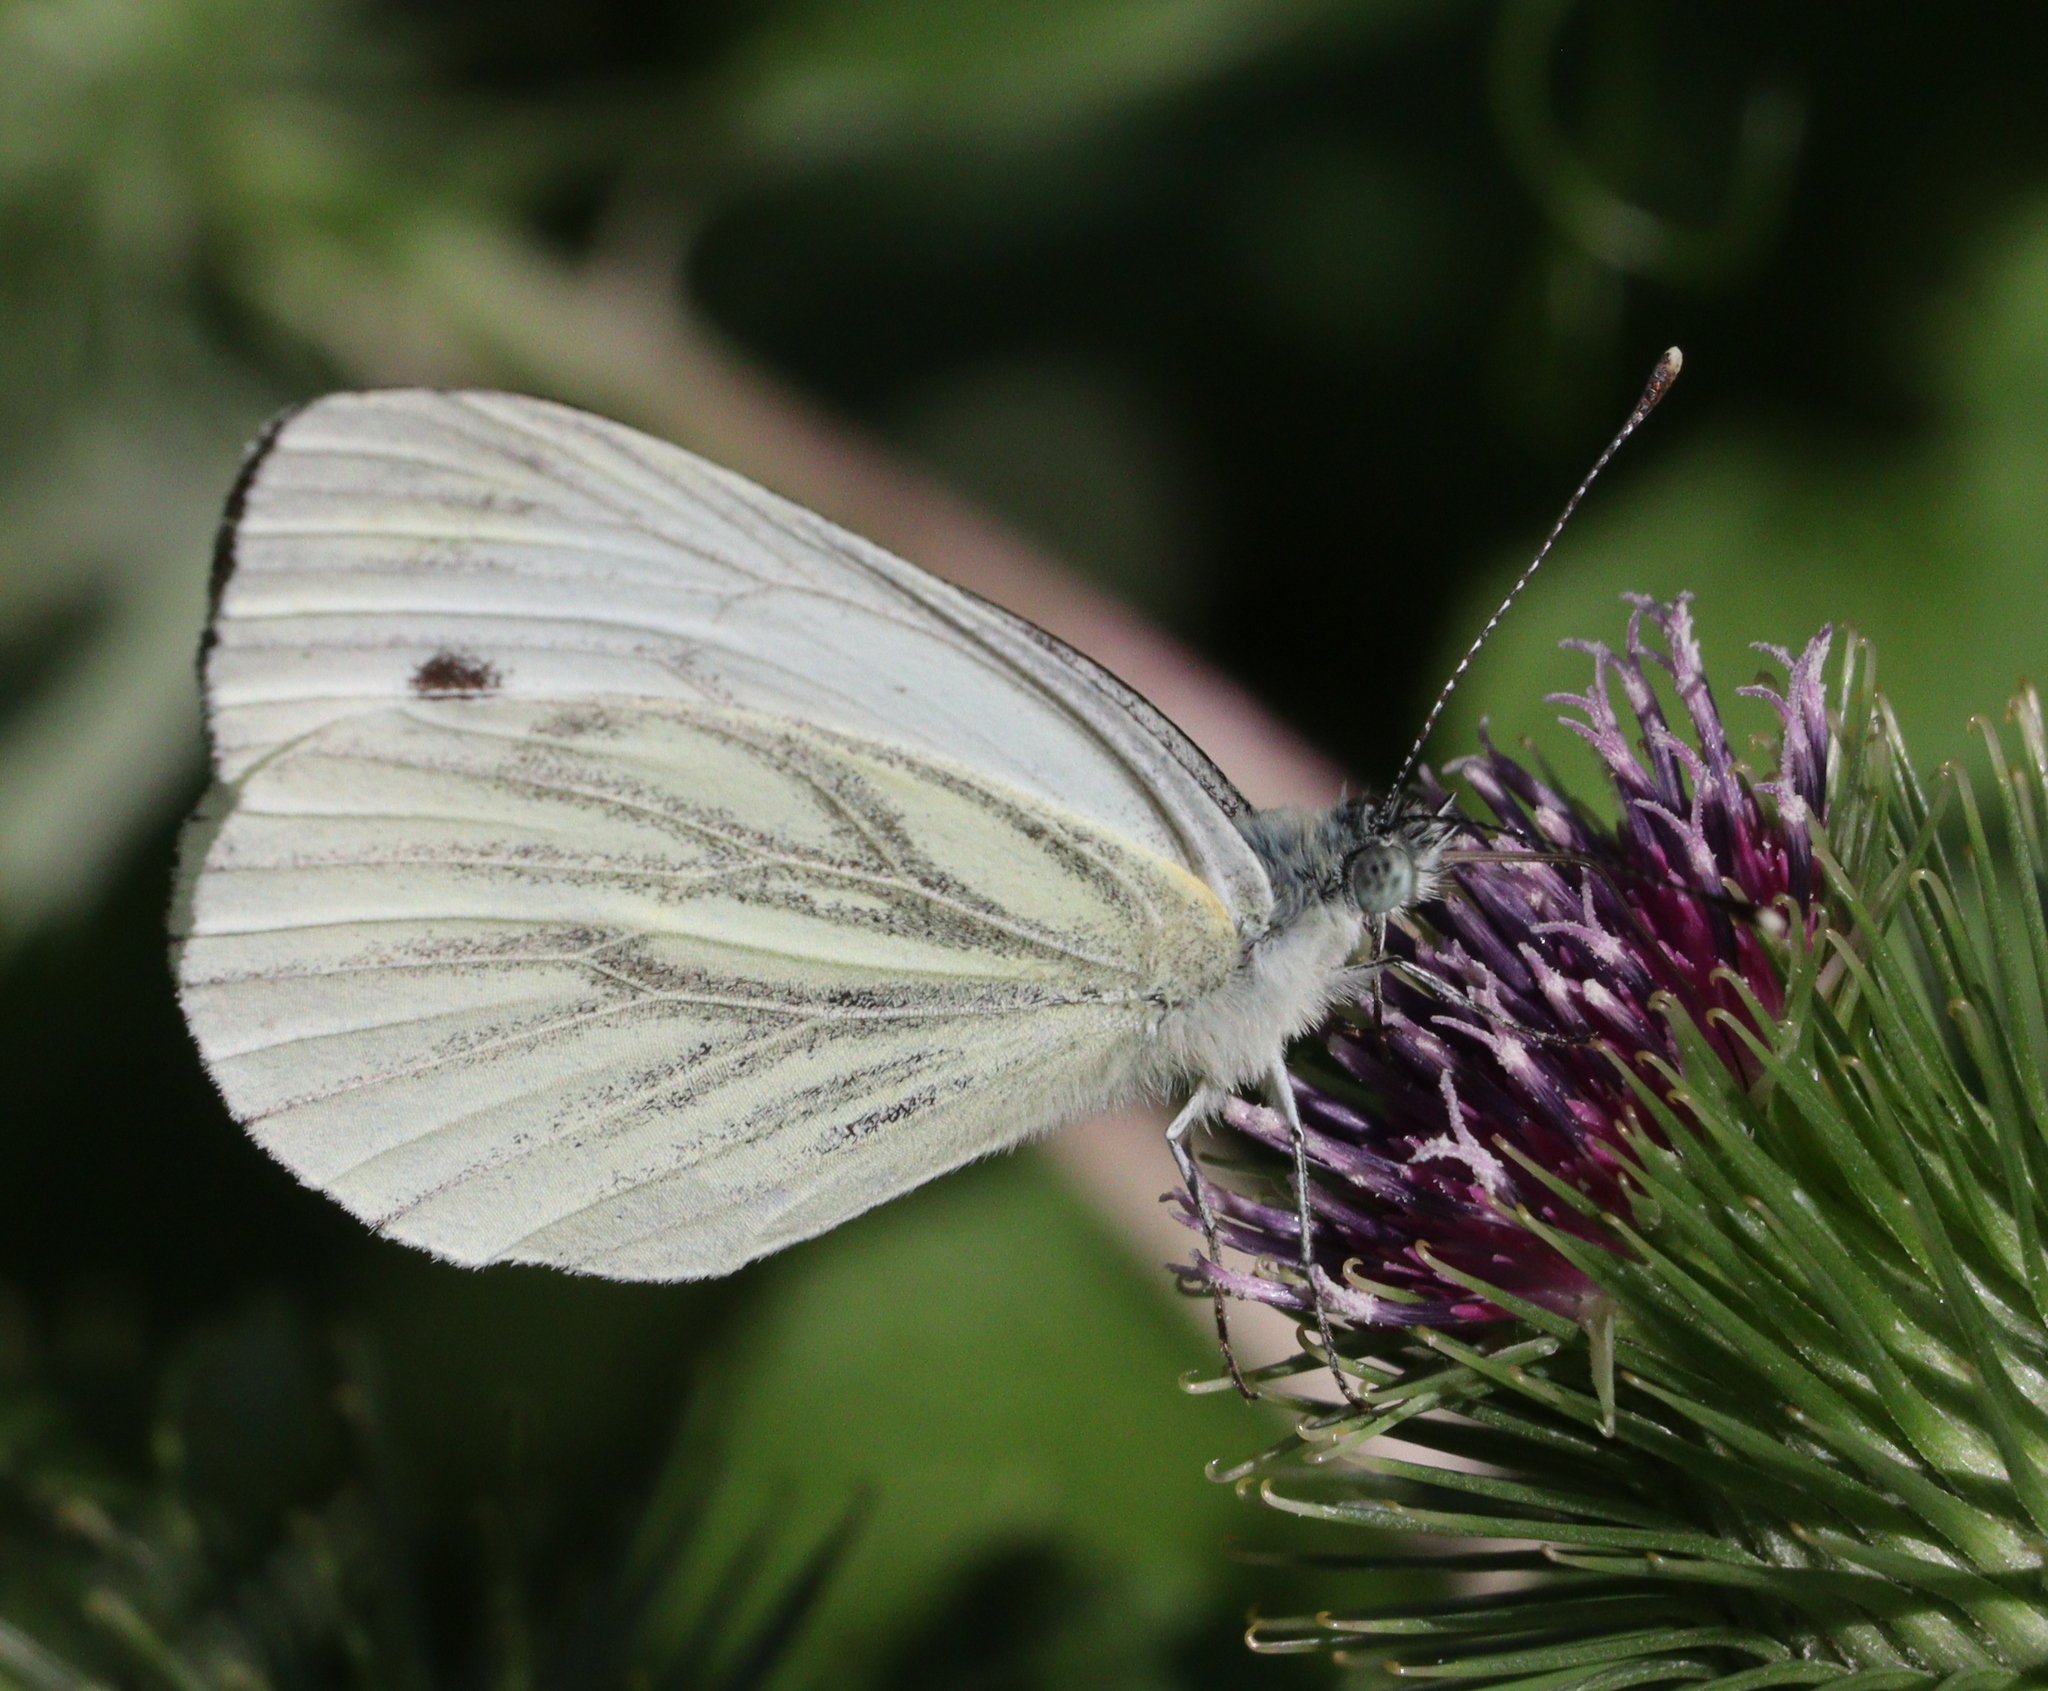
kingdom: Animalia
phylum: Arthropoda
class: Insecta
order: Lepidoptera
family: Pieridae
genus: Pieris
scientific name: Pieris napi
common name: Green-veined white
